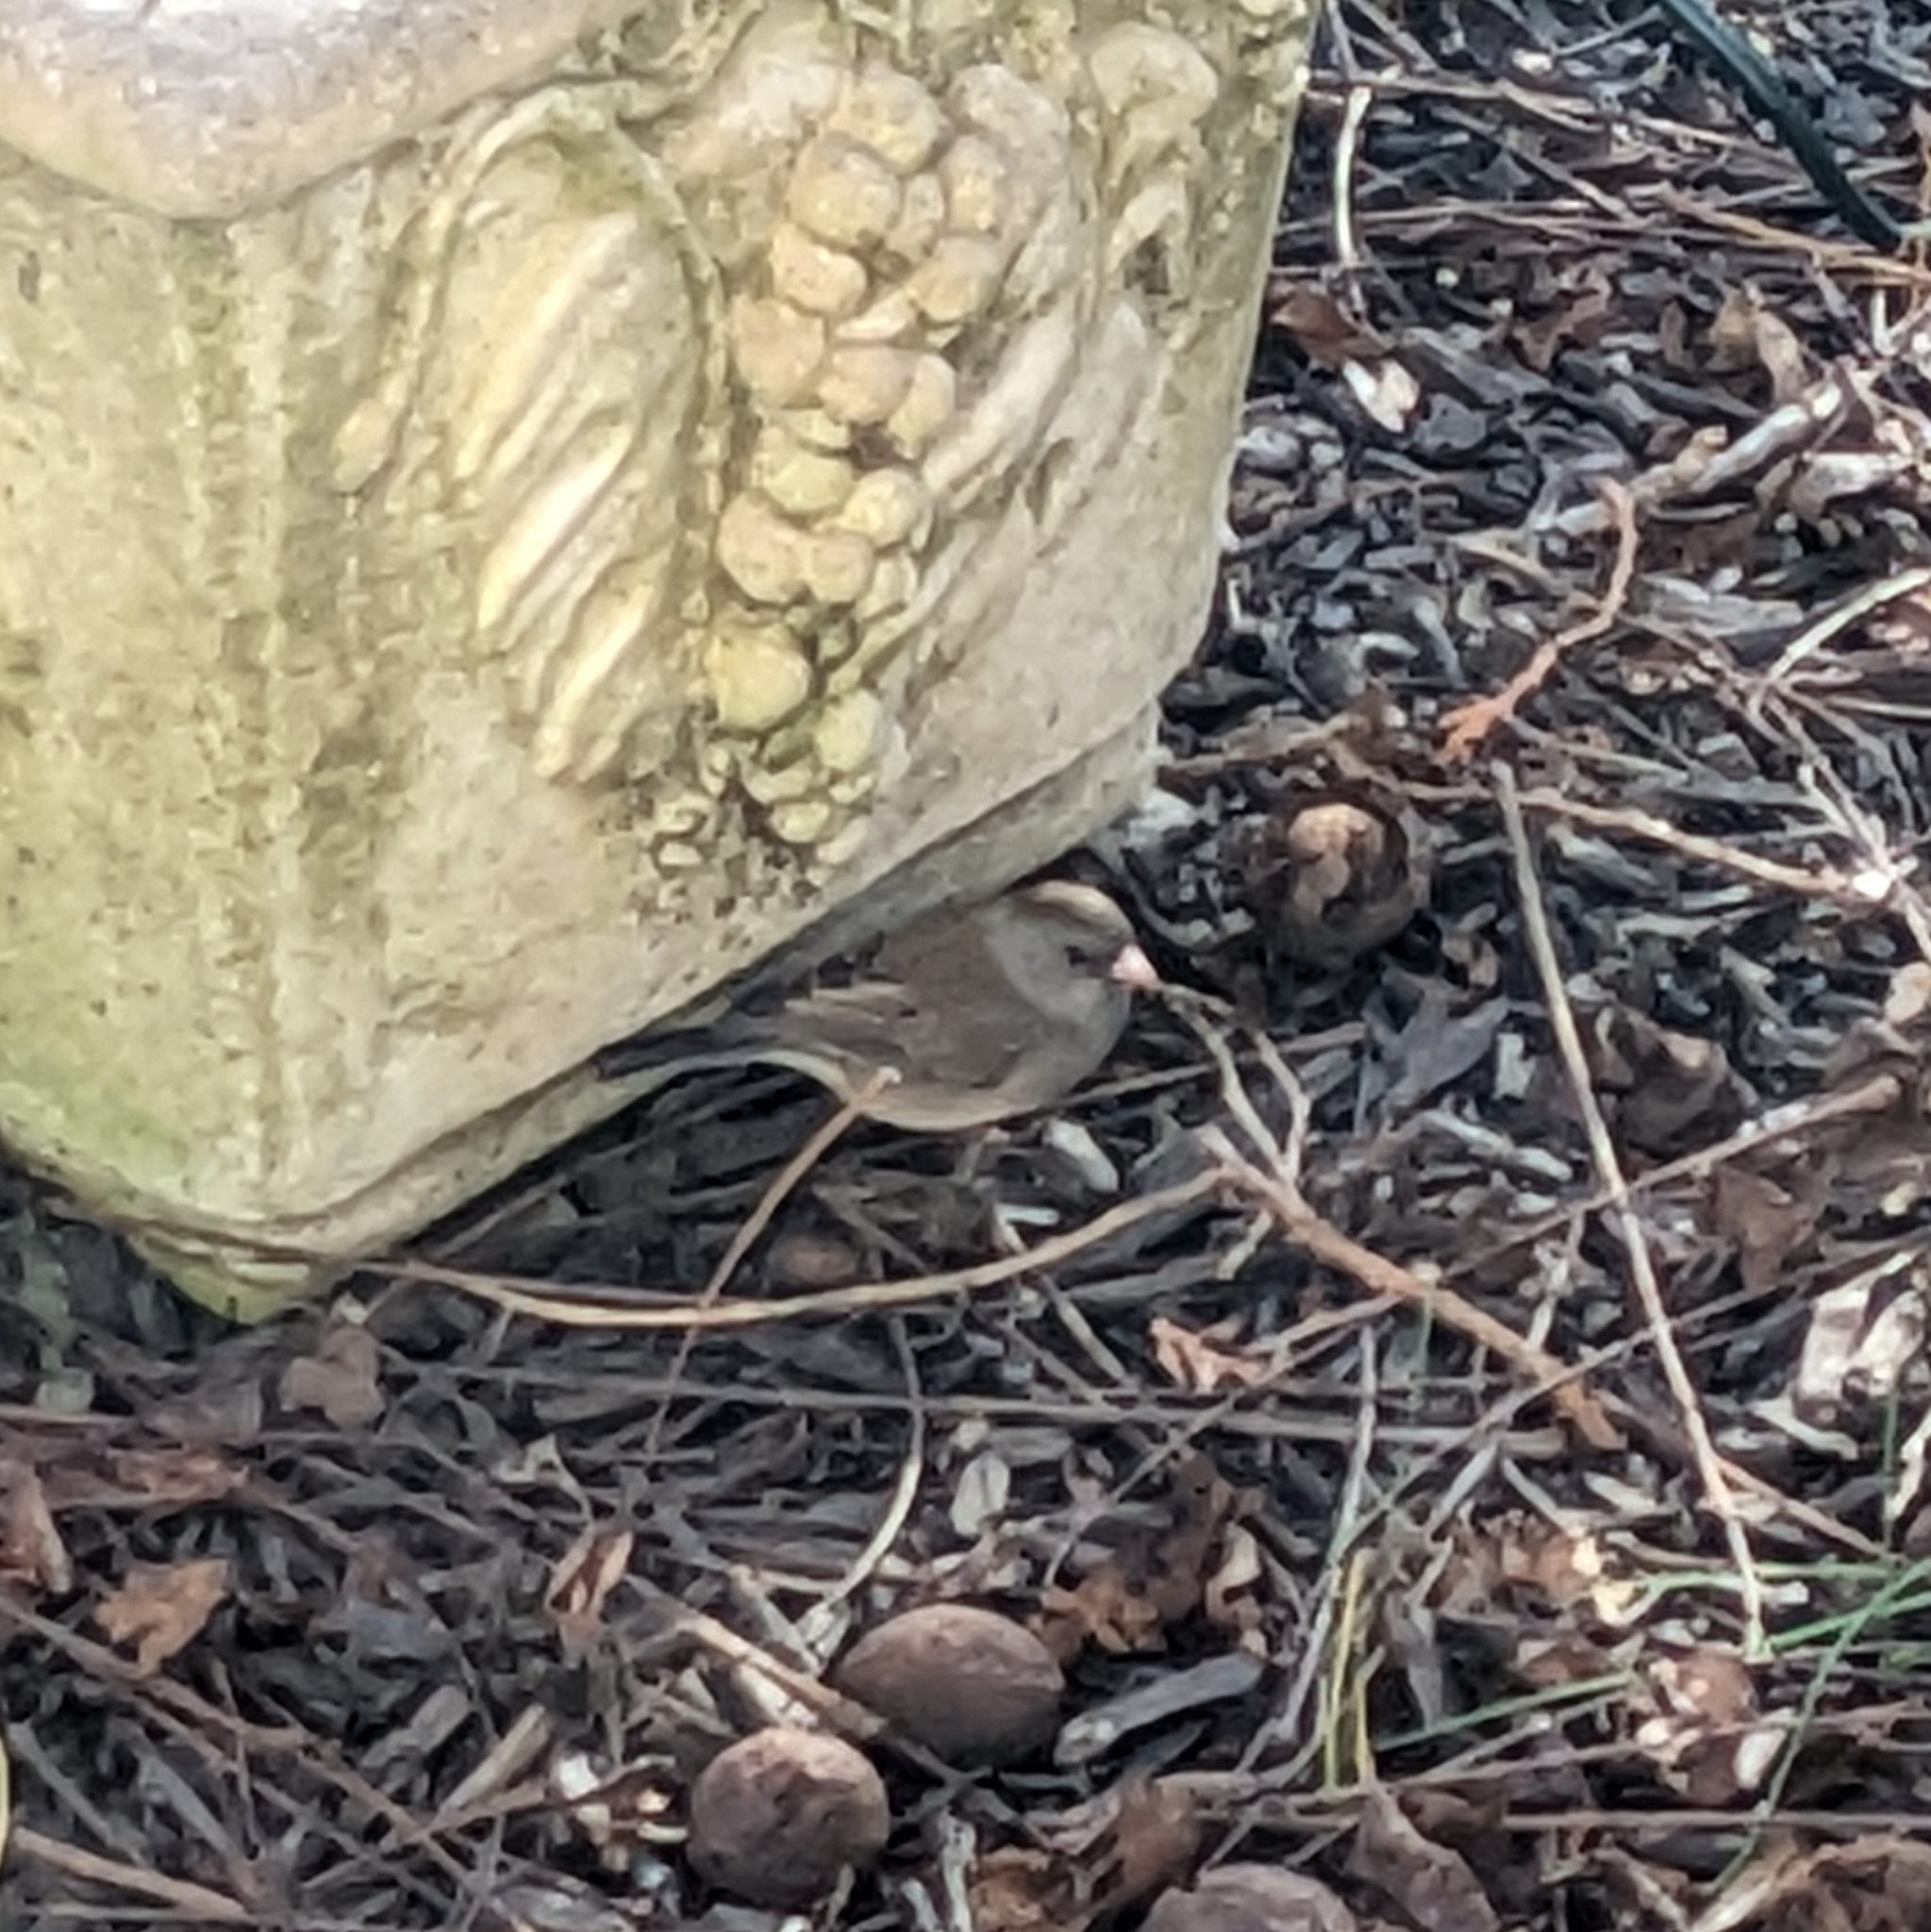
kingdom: Animalia
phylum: Chordata
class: Aves
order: Passeriformes
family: Passerellidae
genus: Junco
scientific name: Junco hyemalis
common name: Dark-eyed junco
